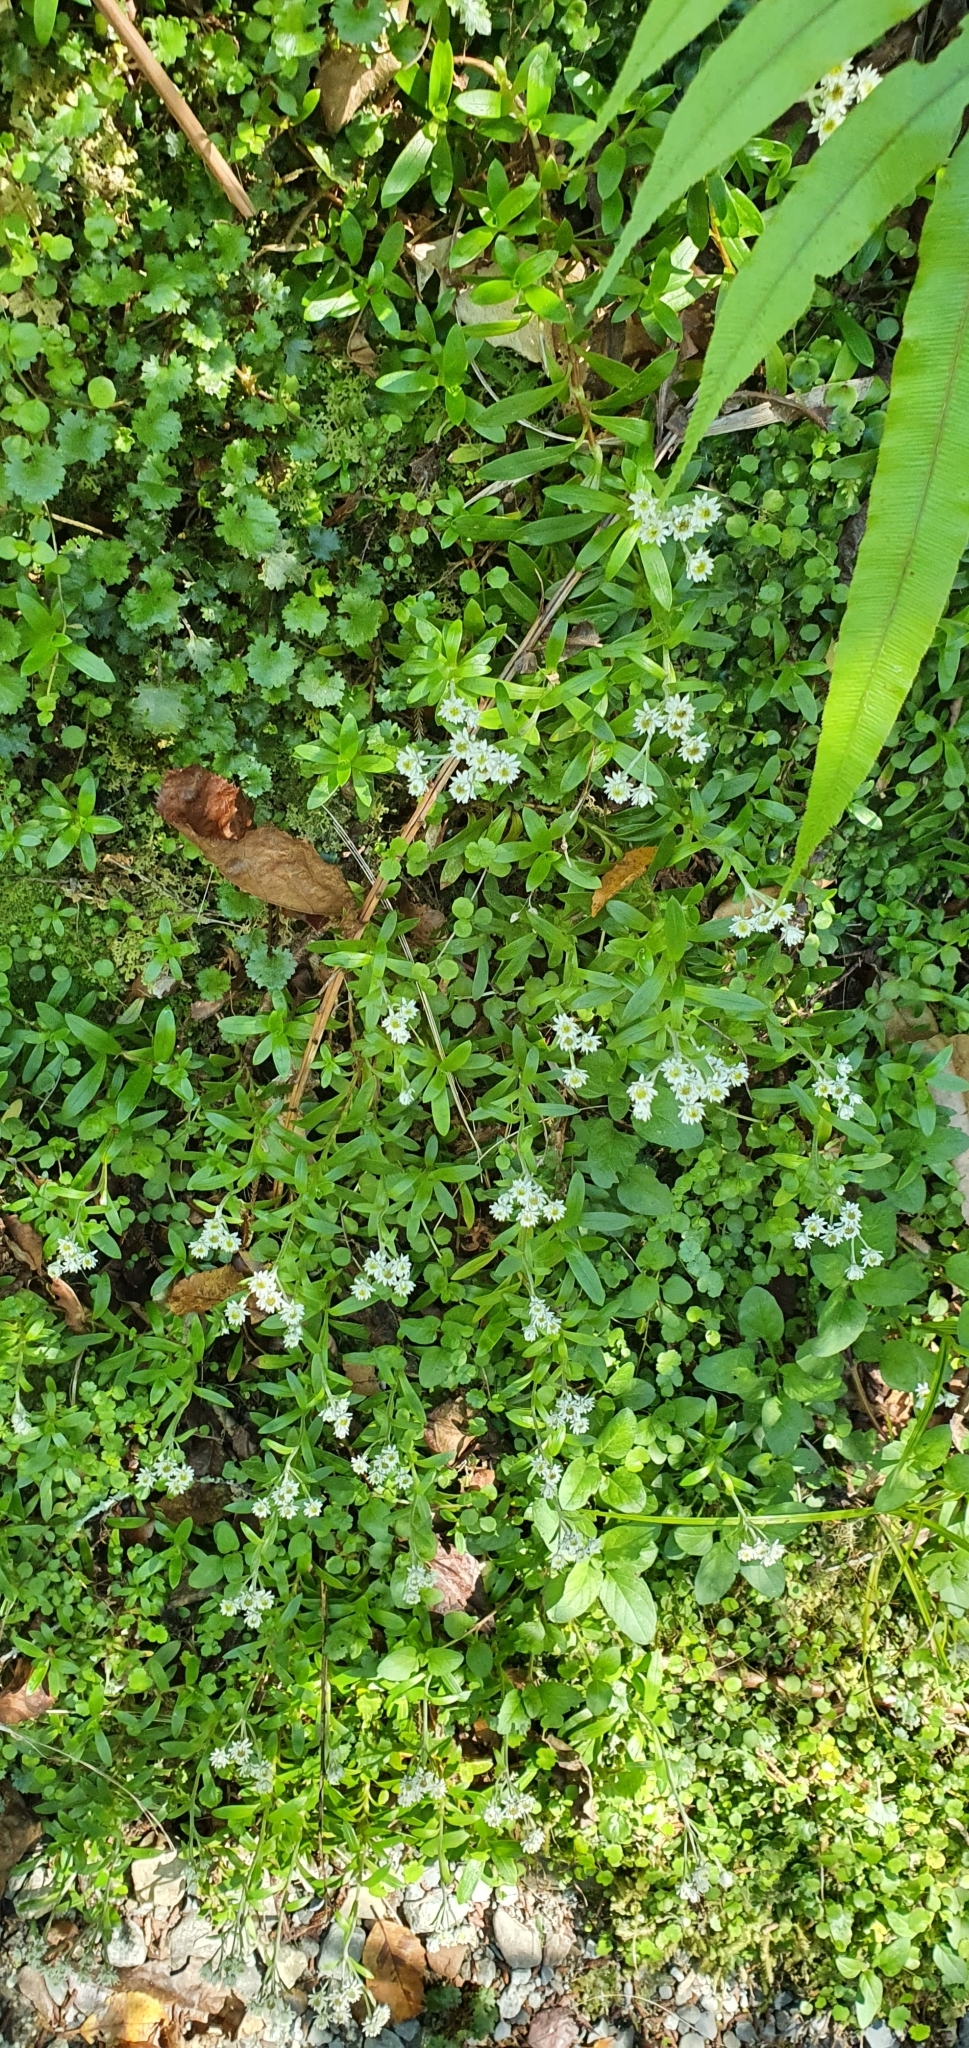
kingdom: Plantae
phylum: Tracheophyta
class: Magnoliopsida
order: Asterales
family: Asteraceae
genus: Anaphalioides
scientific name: Anaphalioides trinervis
